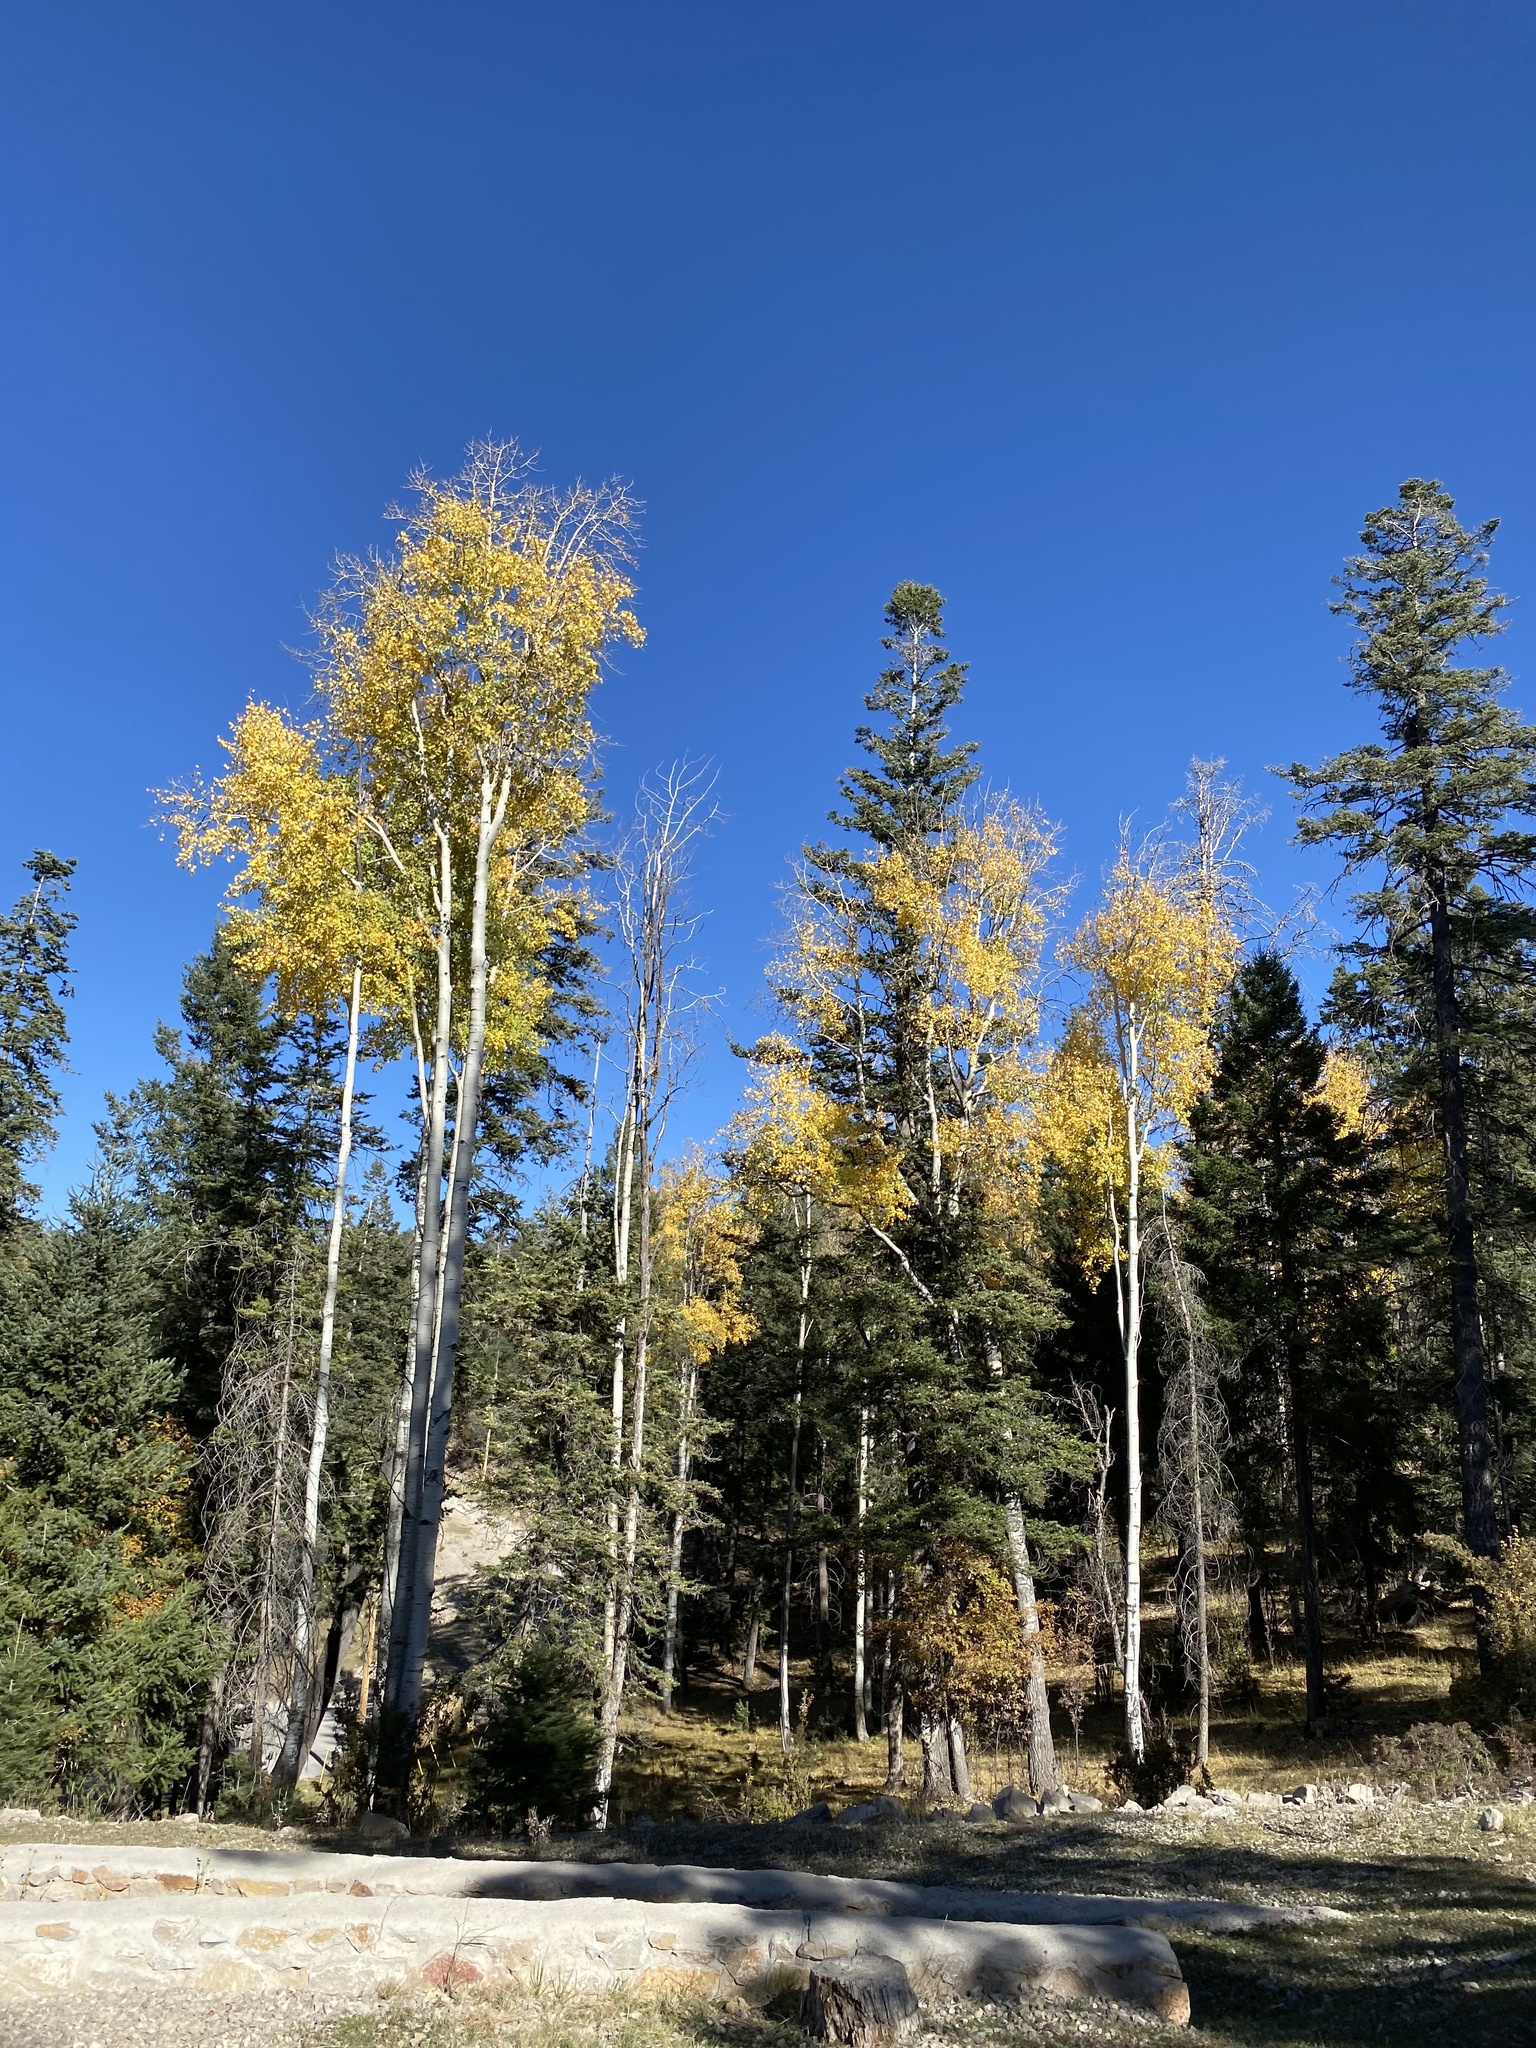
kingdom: Plantae
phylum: Tracheophyta
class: Magnoliopsida
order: Malpighiales
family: Salicaceae
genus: Populus
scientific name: Populus tremuloides
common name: Quaking aspen
